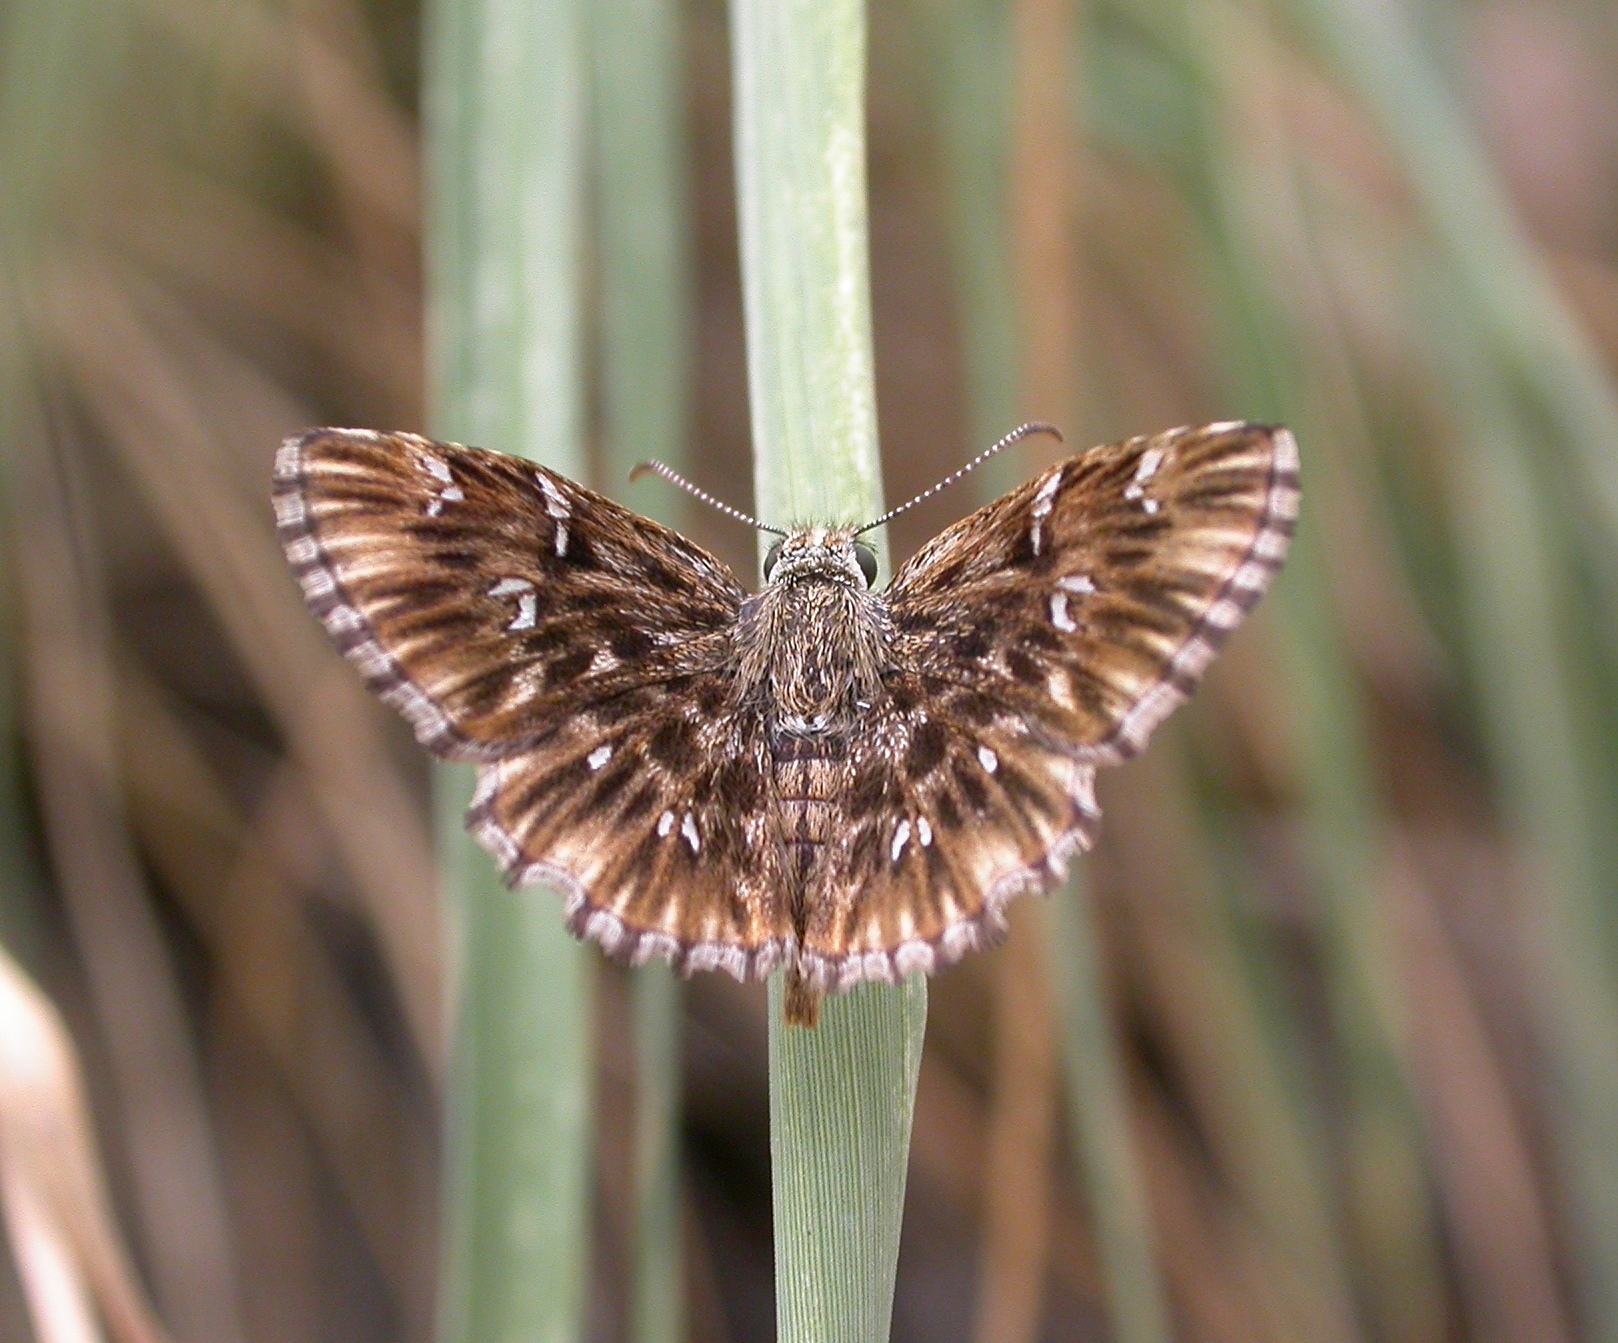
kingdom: Animalia
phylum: Arthropoda
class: Insecta
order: Lepidoptera
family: Hesperiidae
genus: Celotes
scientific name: Celotes nessus
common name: Common streaky-skipper
